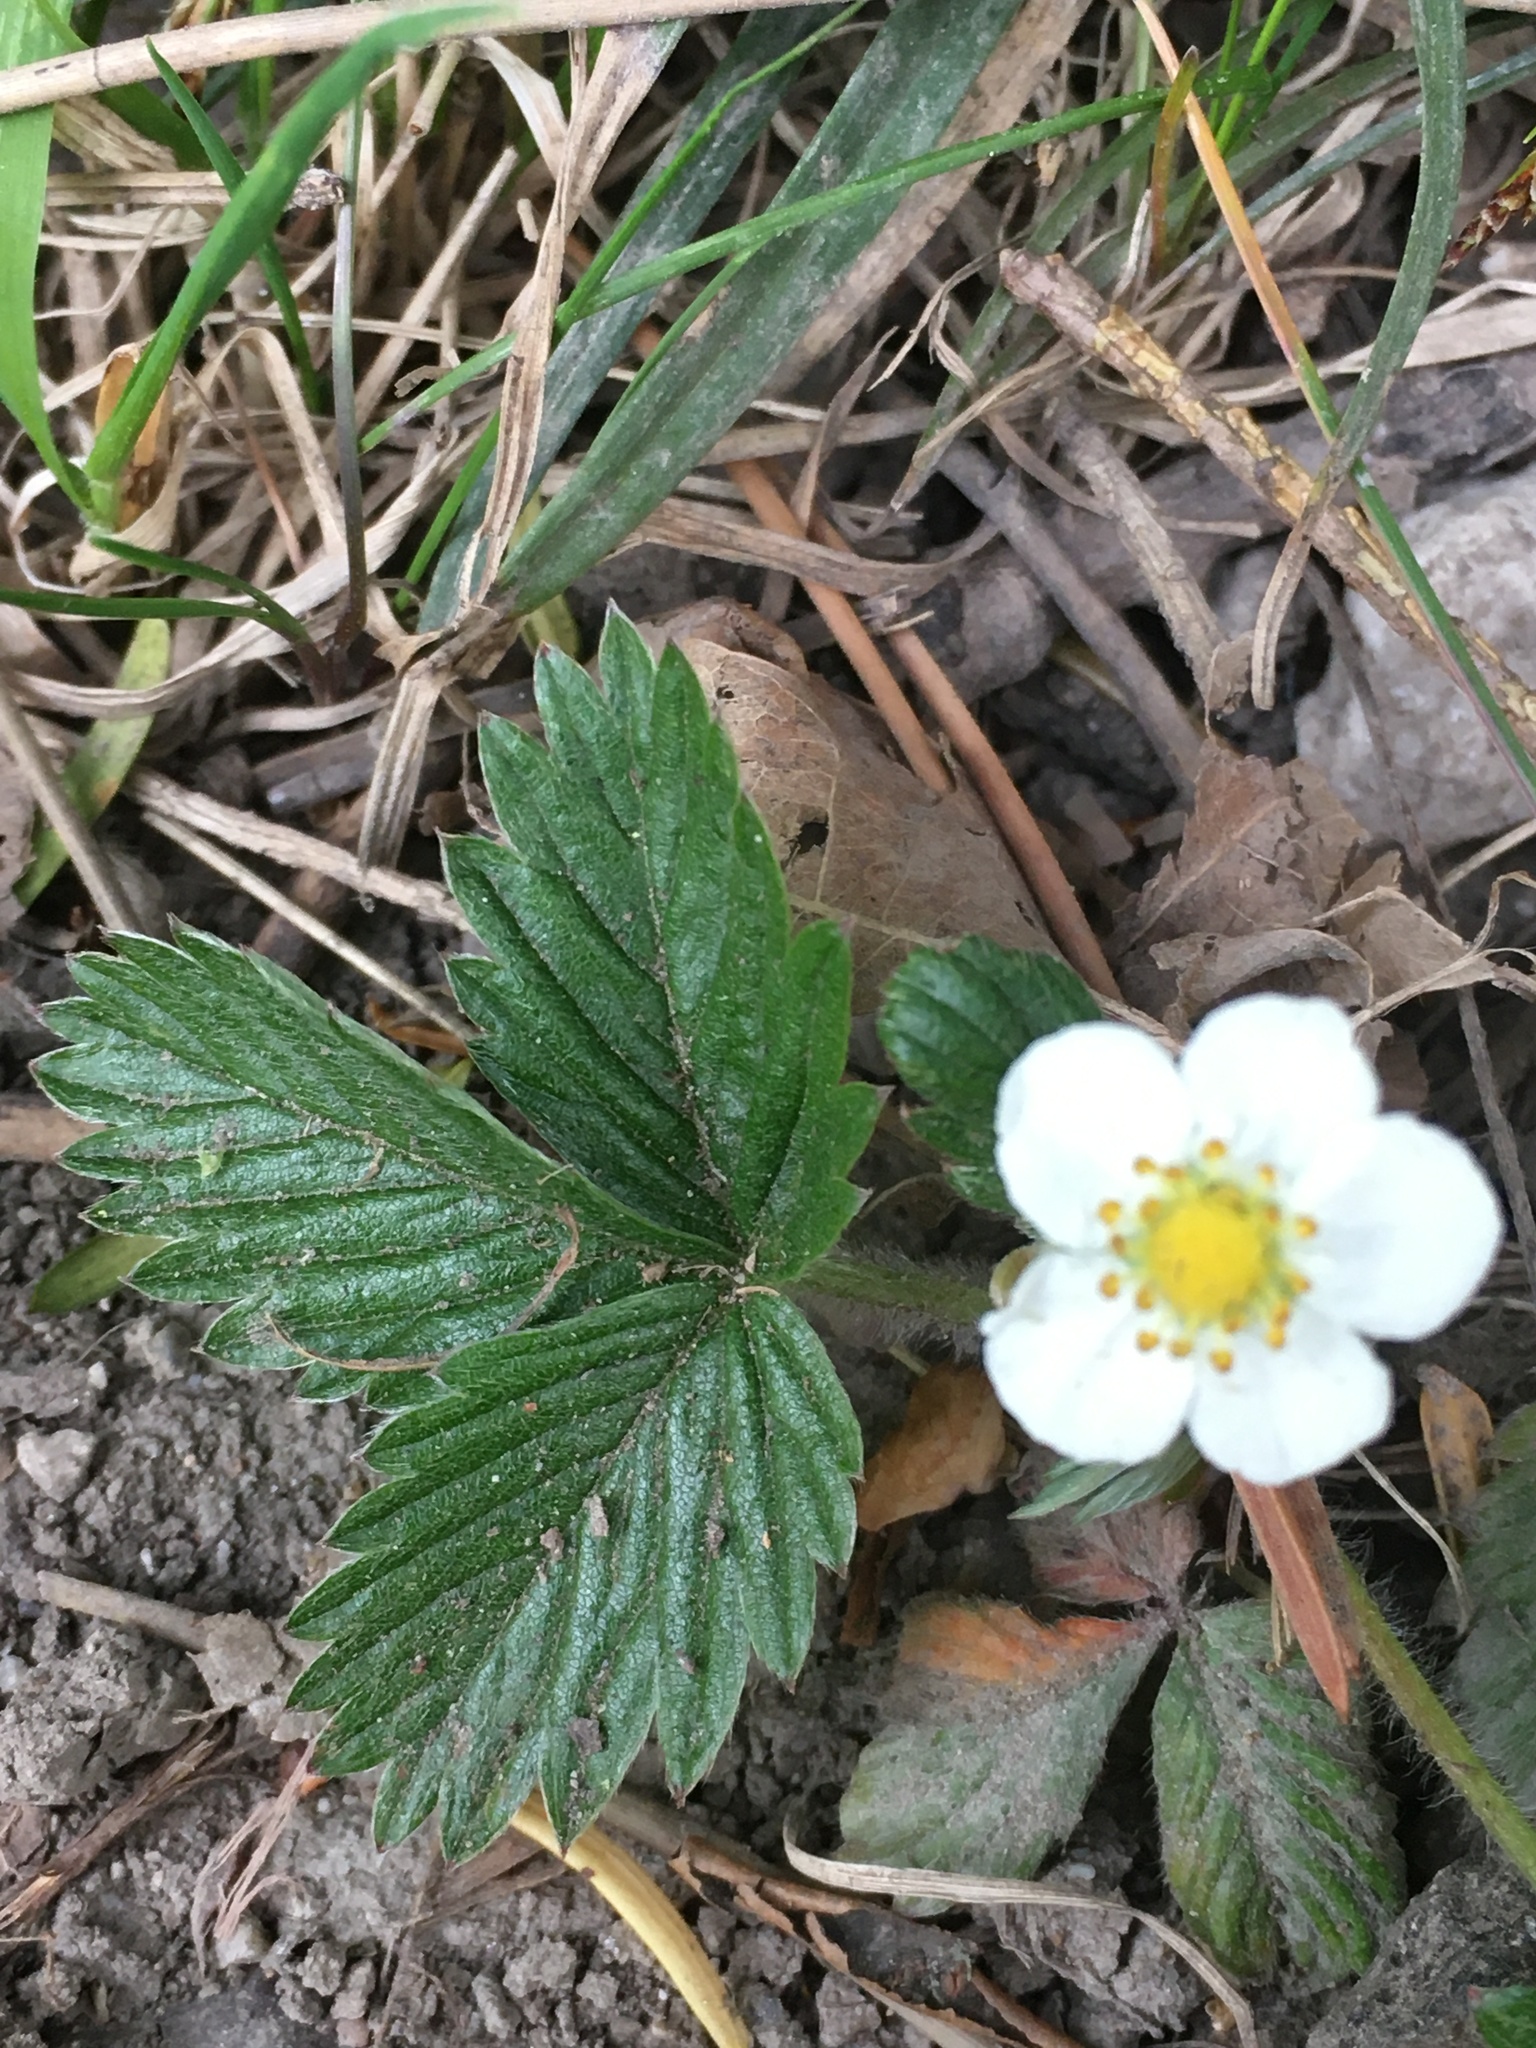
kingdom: Plantae
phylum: Tracheophyta
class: Magnoliopsida
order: Rosales
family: Rosaceae
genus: Fragaria
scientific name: Fragaria vesca
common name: Wild strawberry
